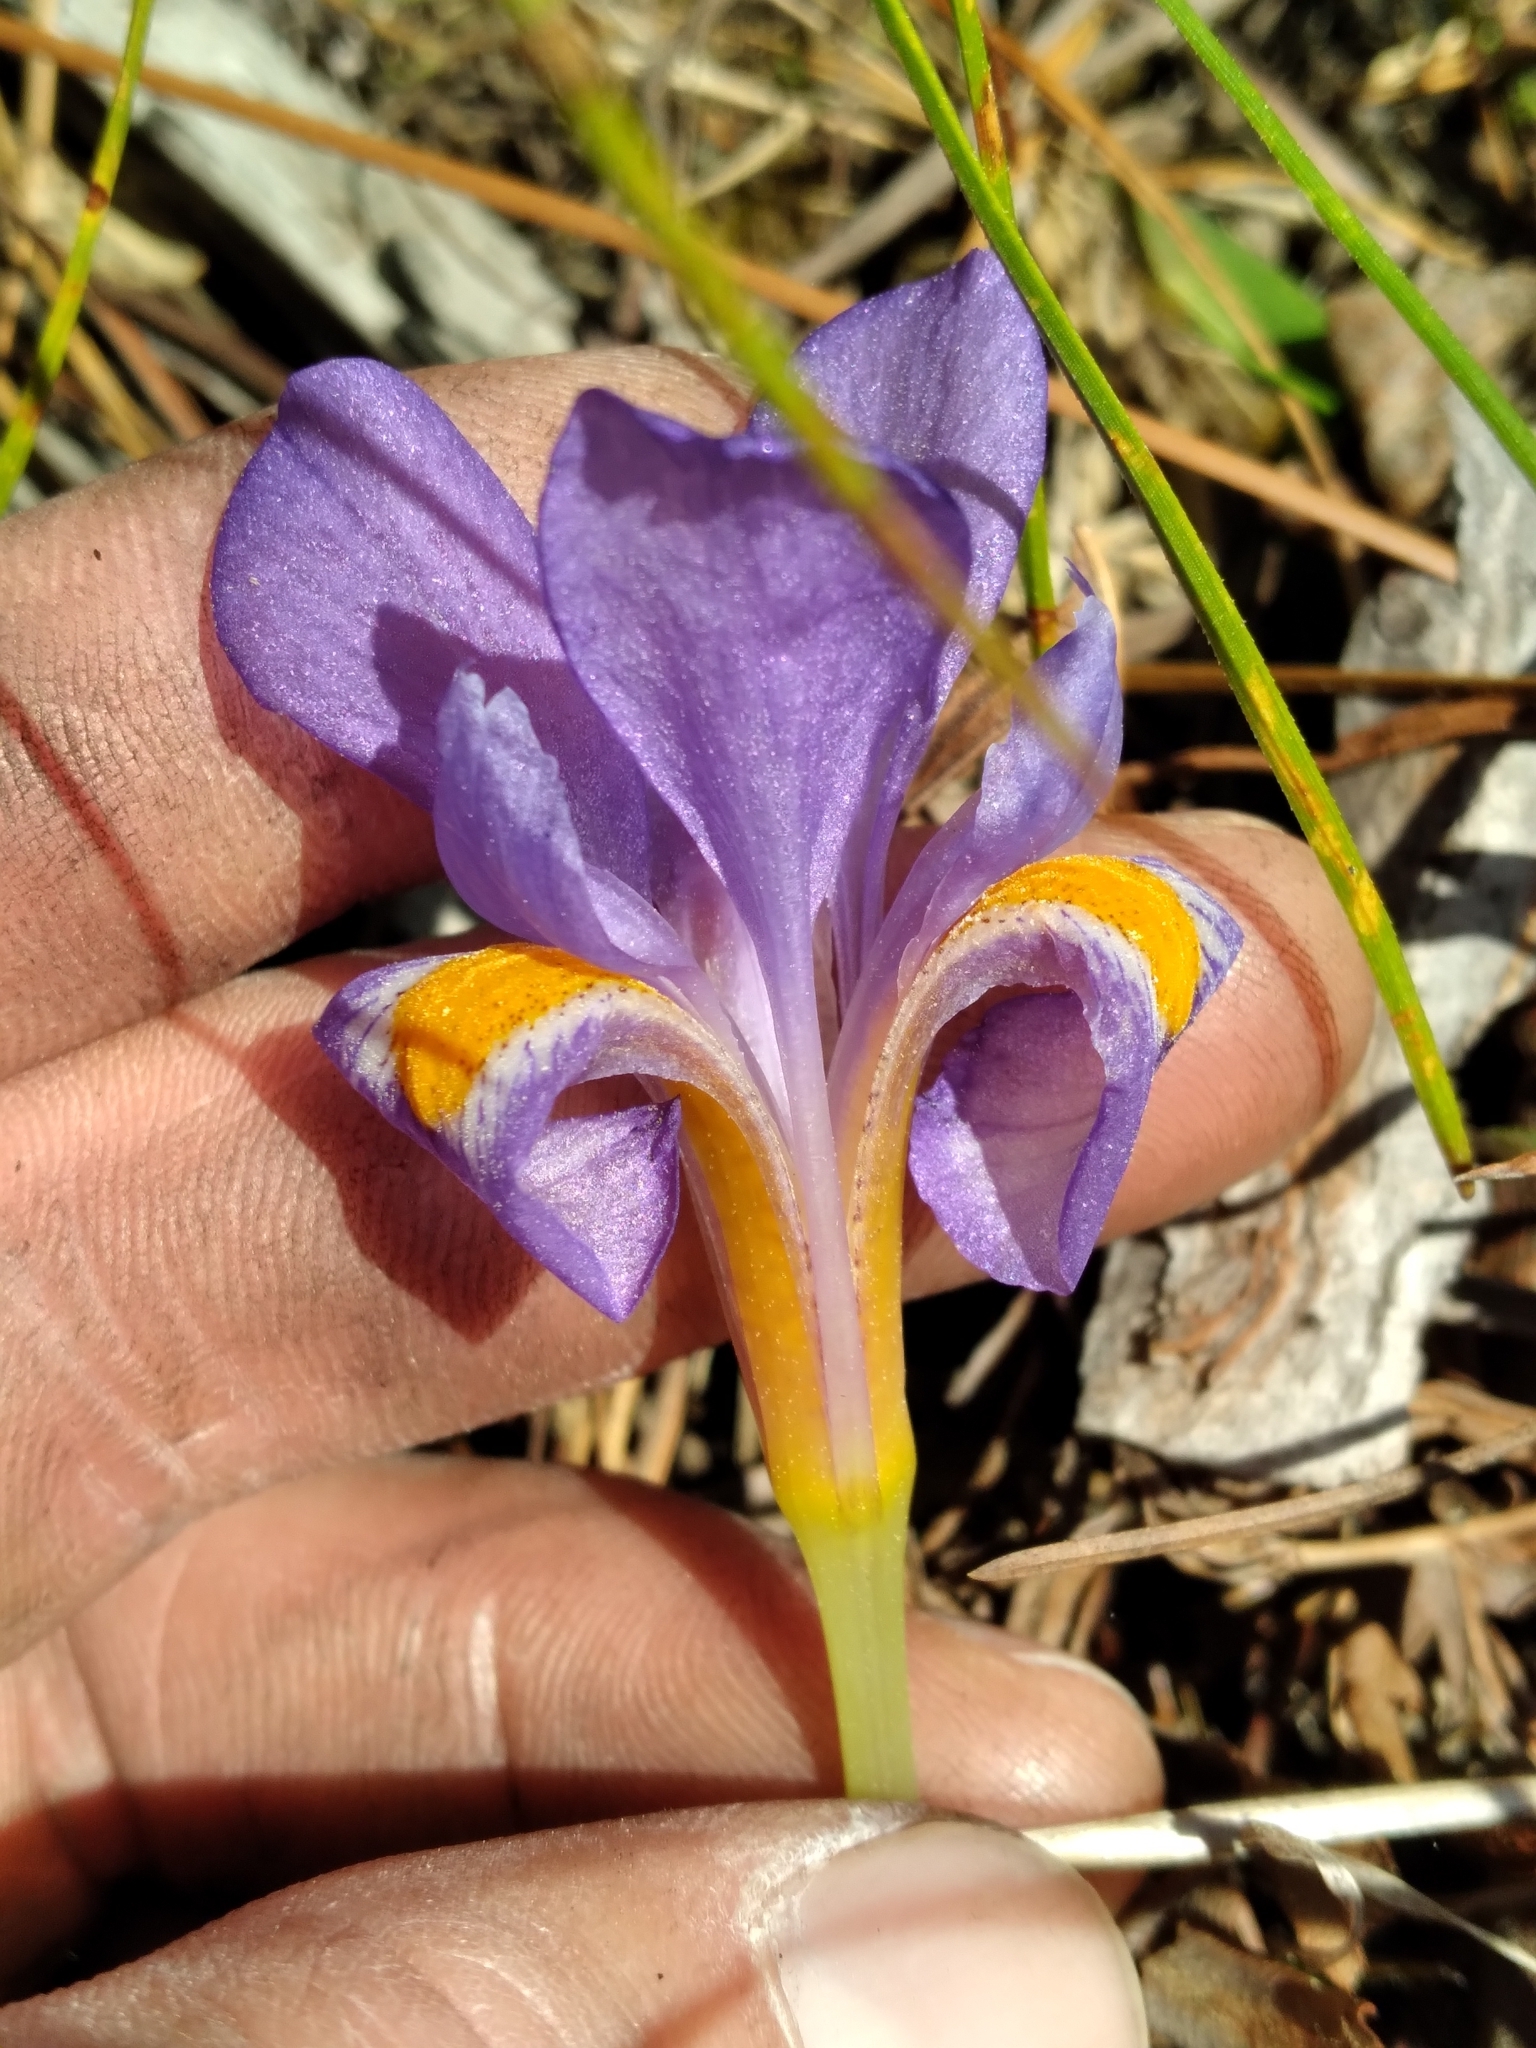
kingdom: Plantae
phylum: Tracheophyta
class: Liliopsida
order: Asparagales
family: Iridaceae
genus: Iris
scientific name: Iris verna
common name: Dwarf iris
